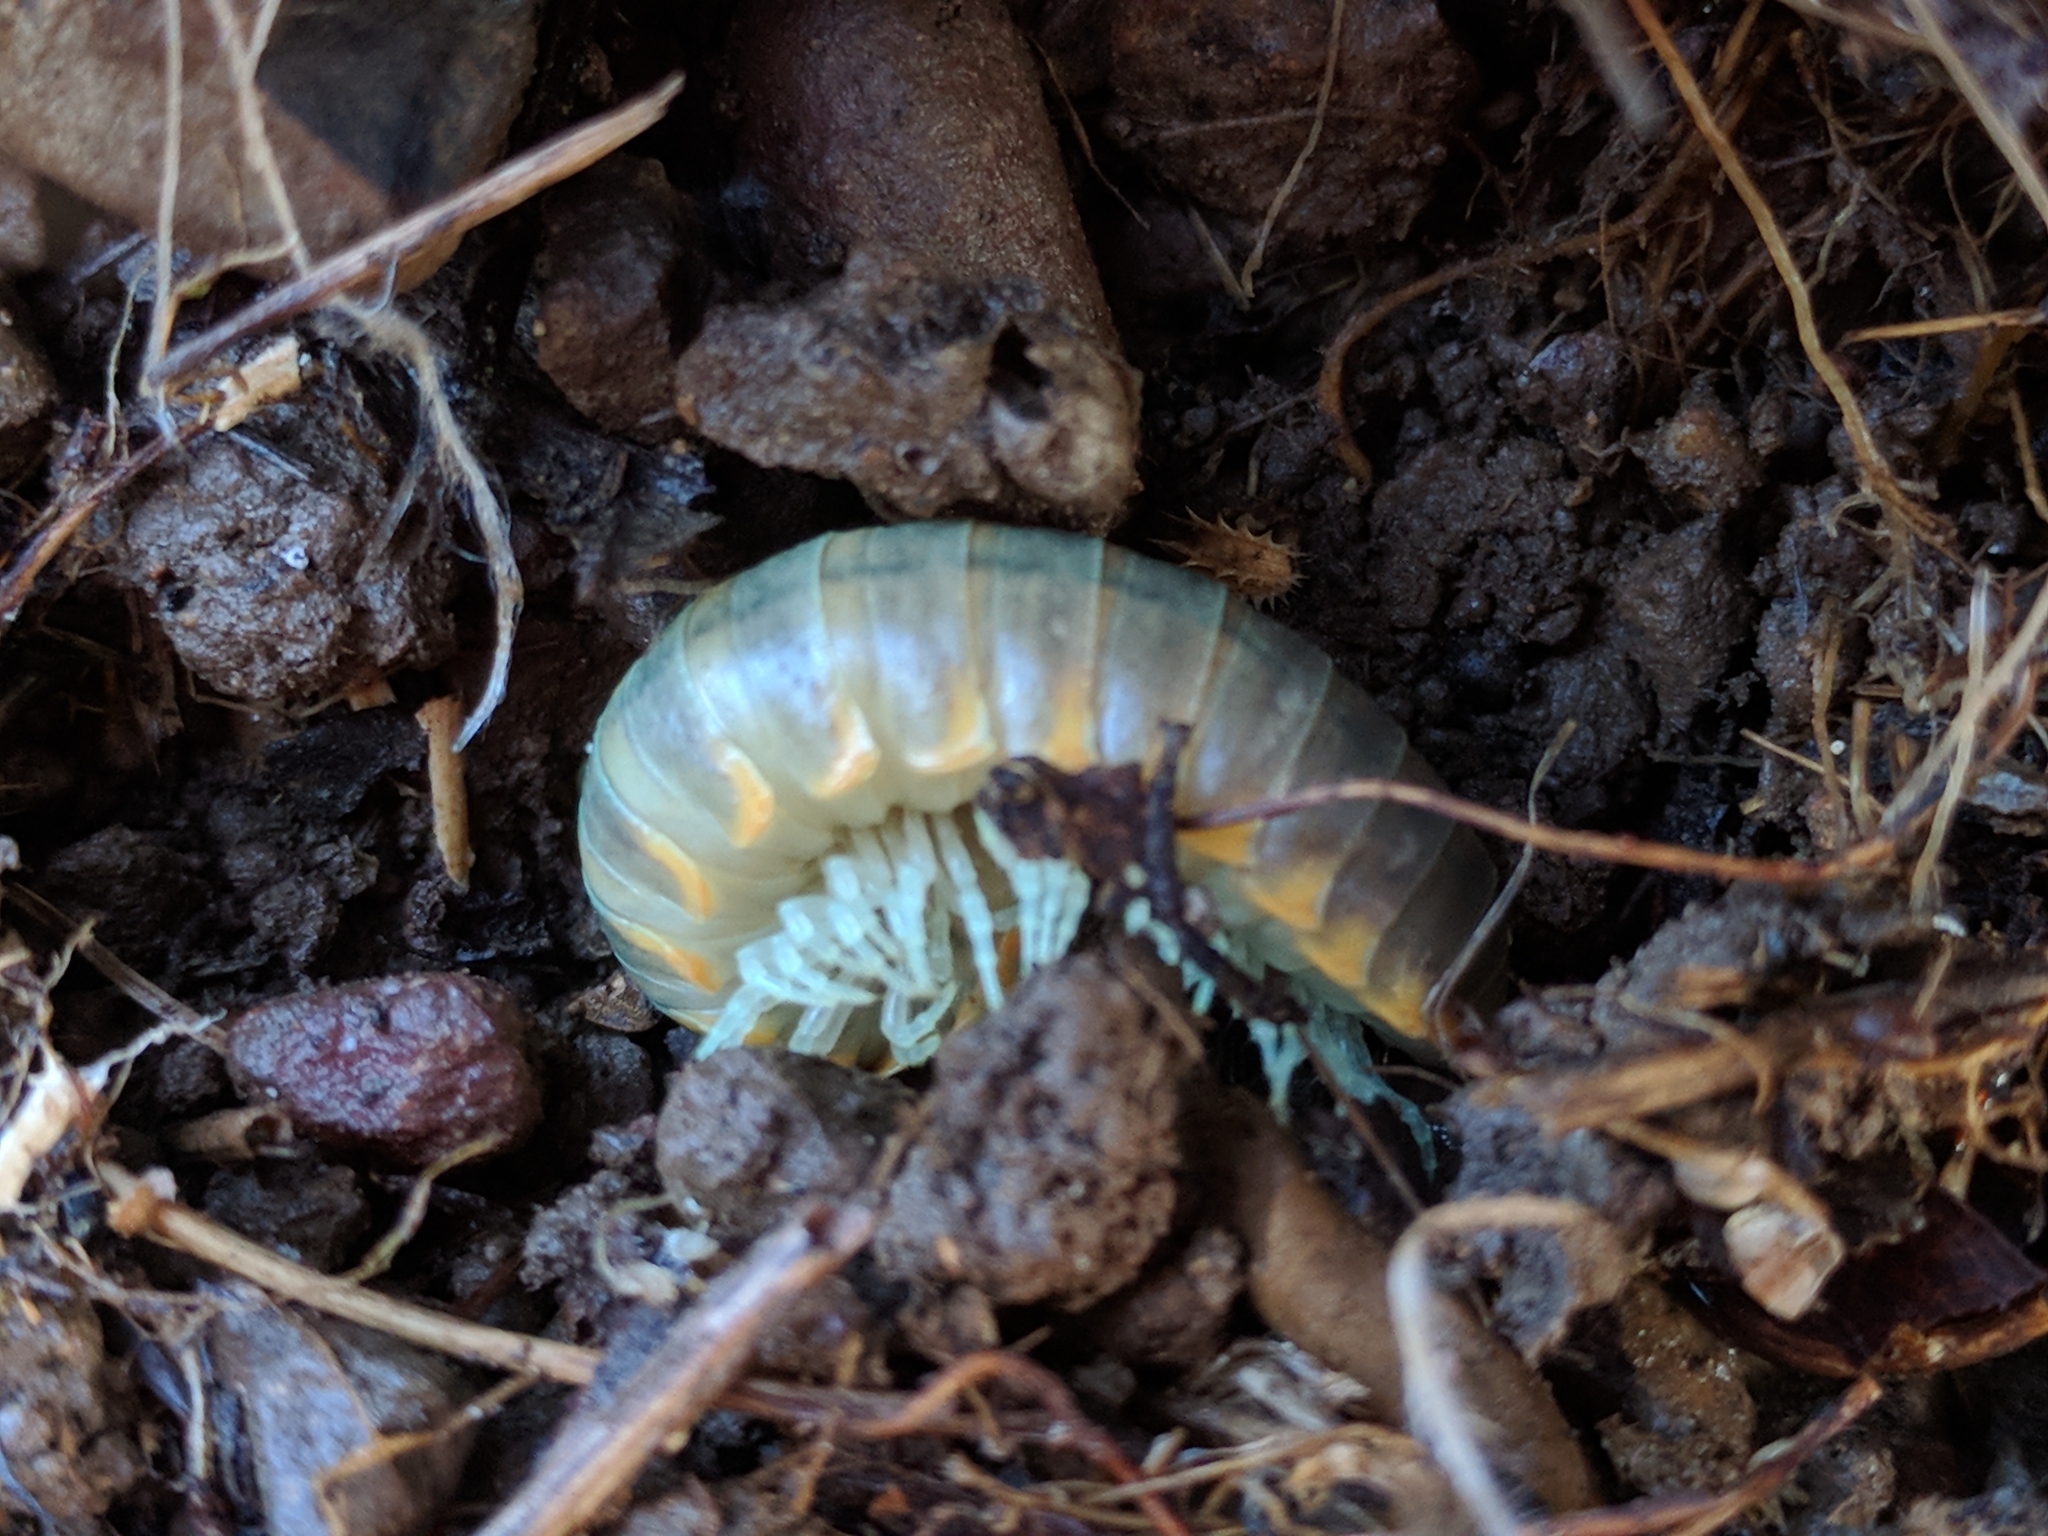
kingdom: Animalia
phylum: Arthropoda
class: Diplopoda
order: Polydesmida
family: Xystodesmidae
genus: Xystocheir
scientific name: Xystocheir dissecta
